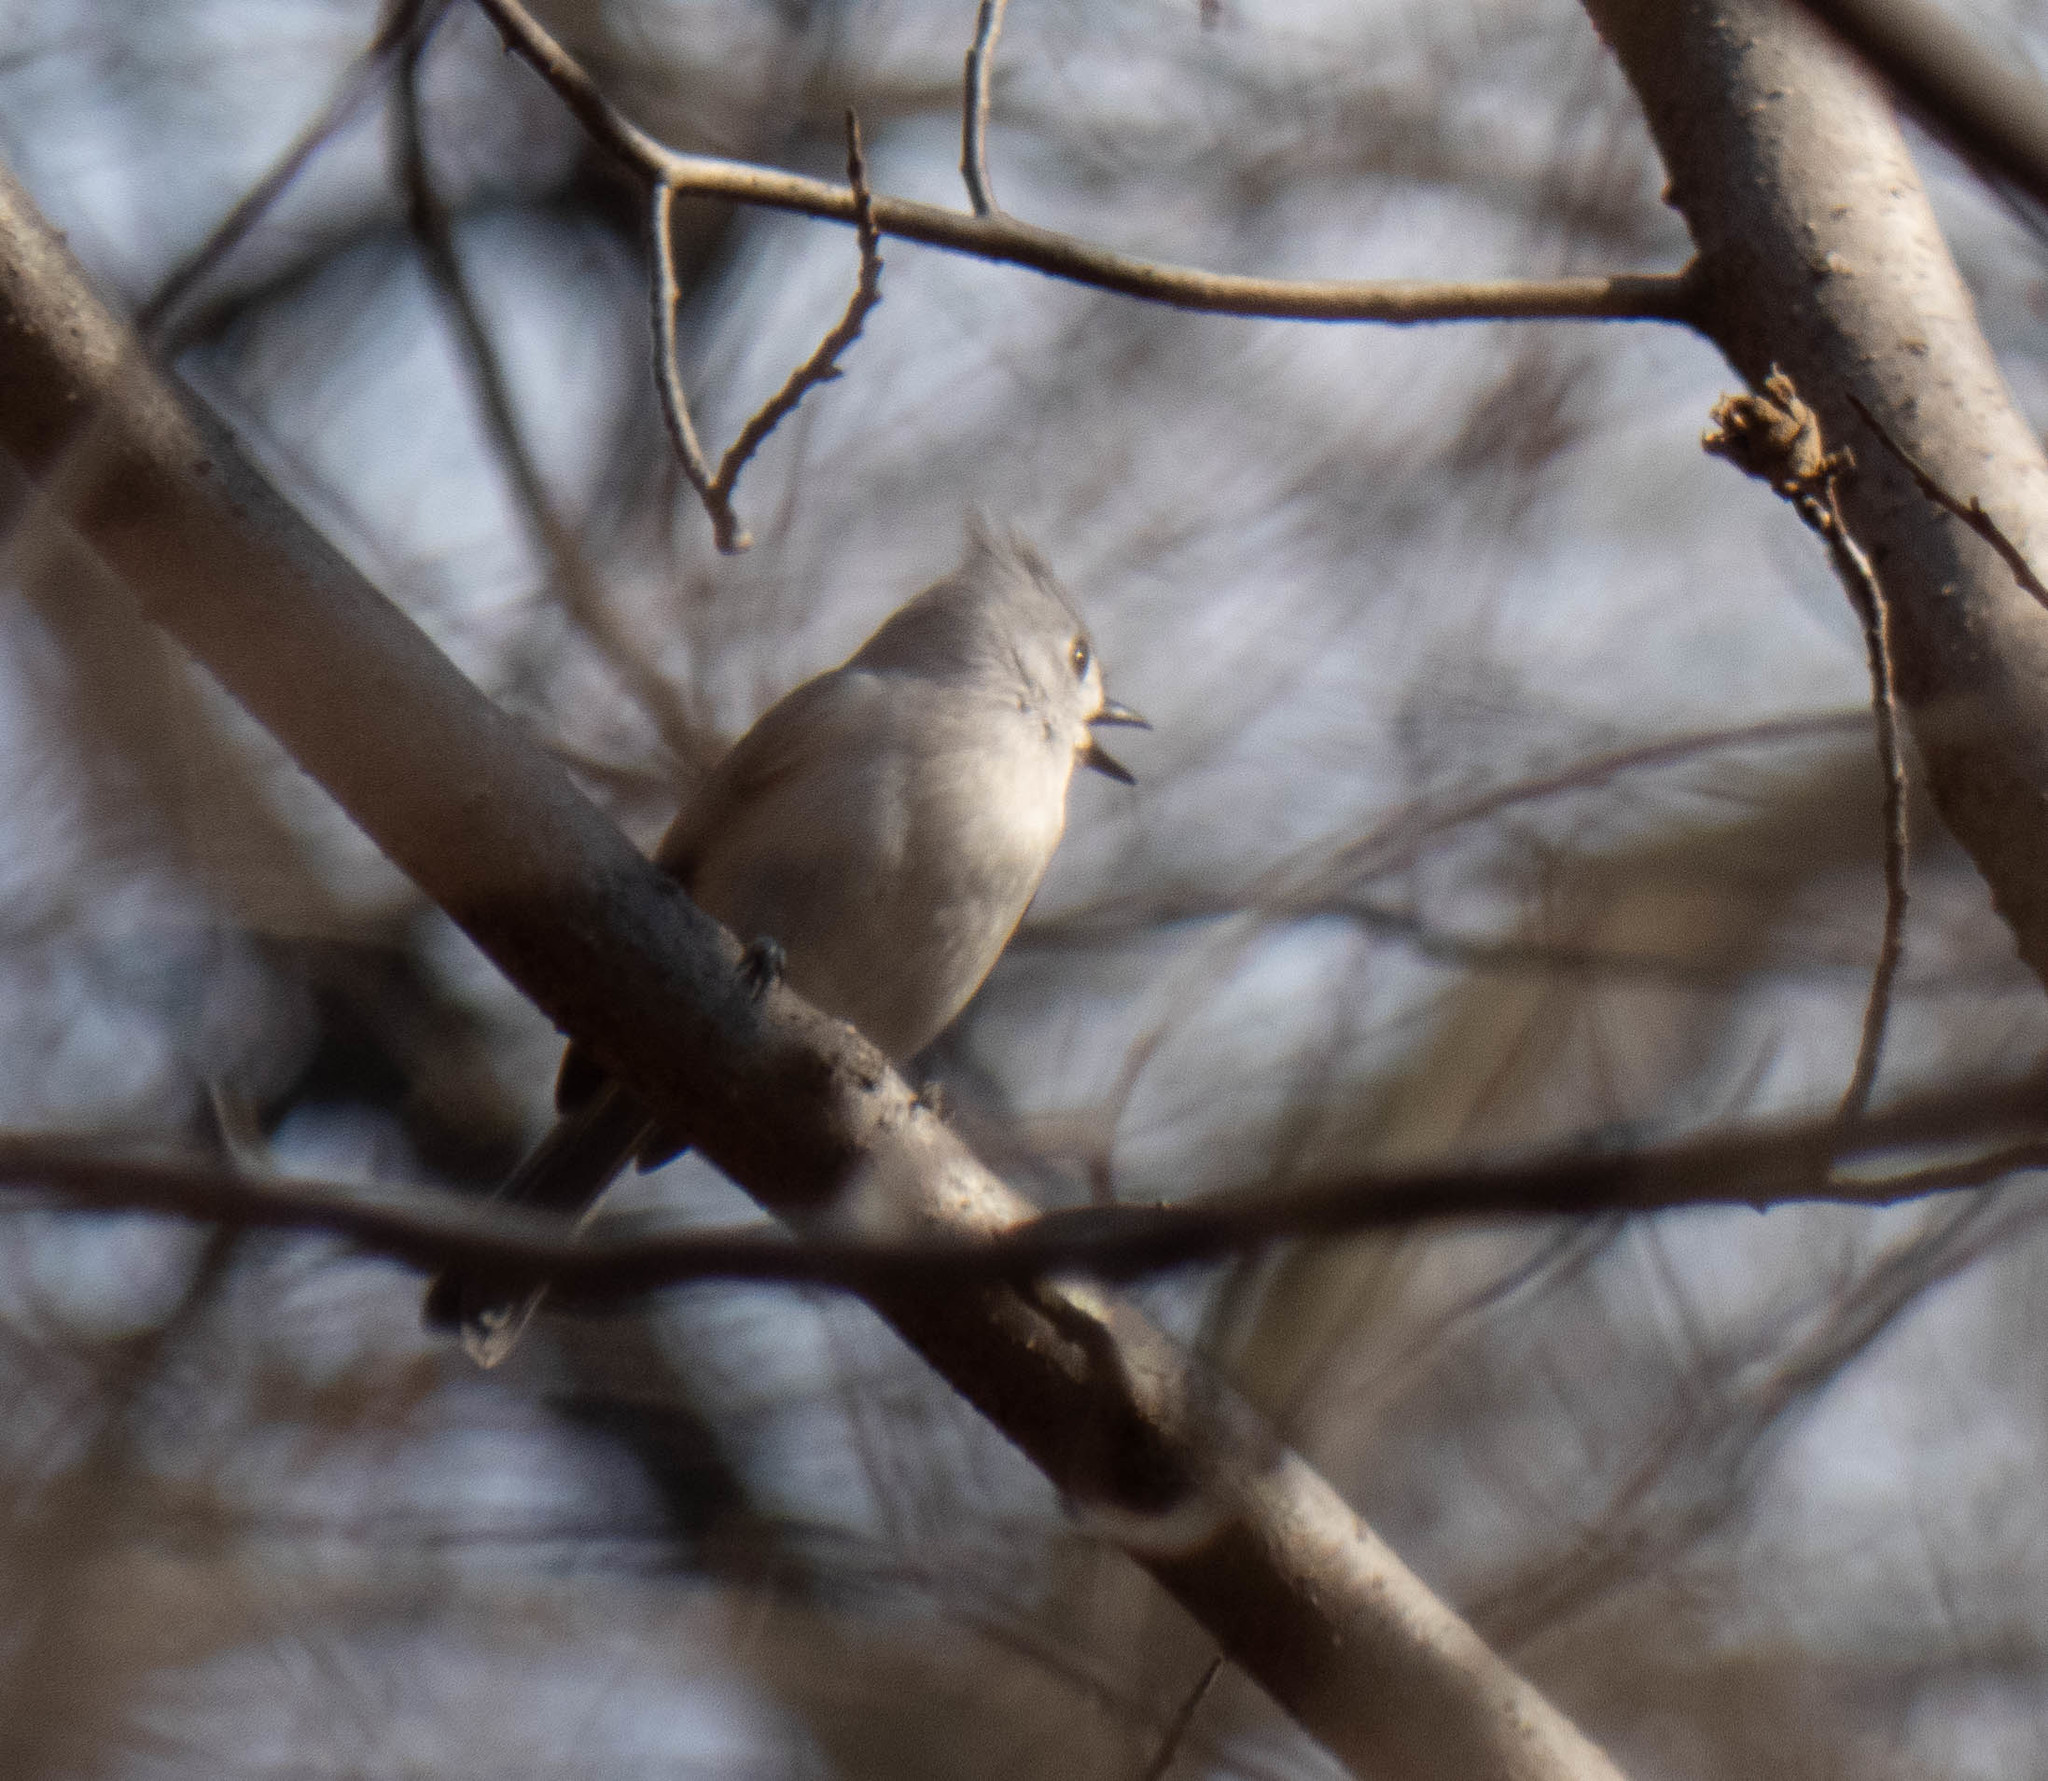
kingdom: Animalia
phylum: Chordata
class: Aves
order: Passeriformes
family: Paridae
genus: Baeolophus
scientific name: Baeolophus bicolor
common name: Tufted titmouse
